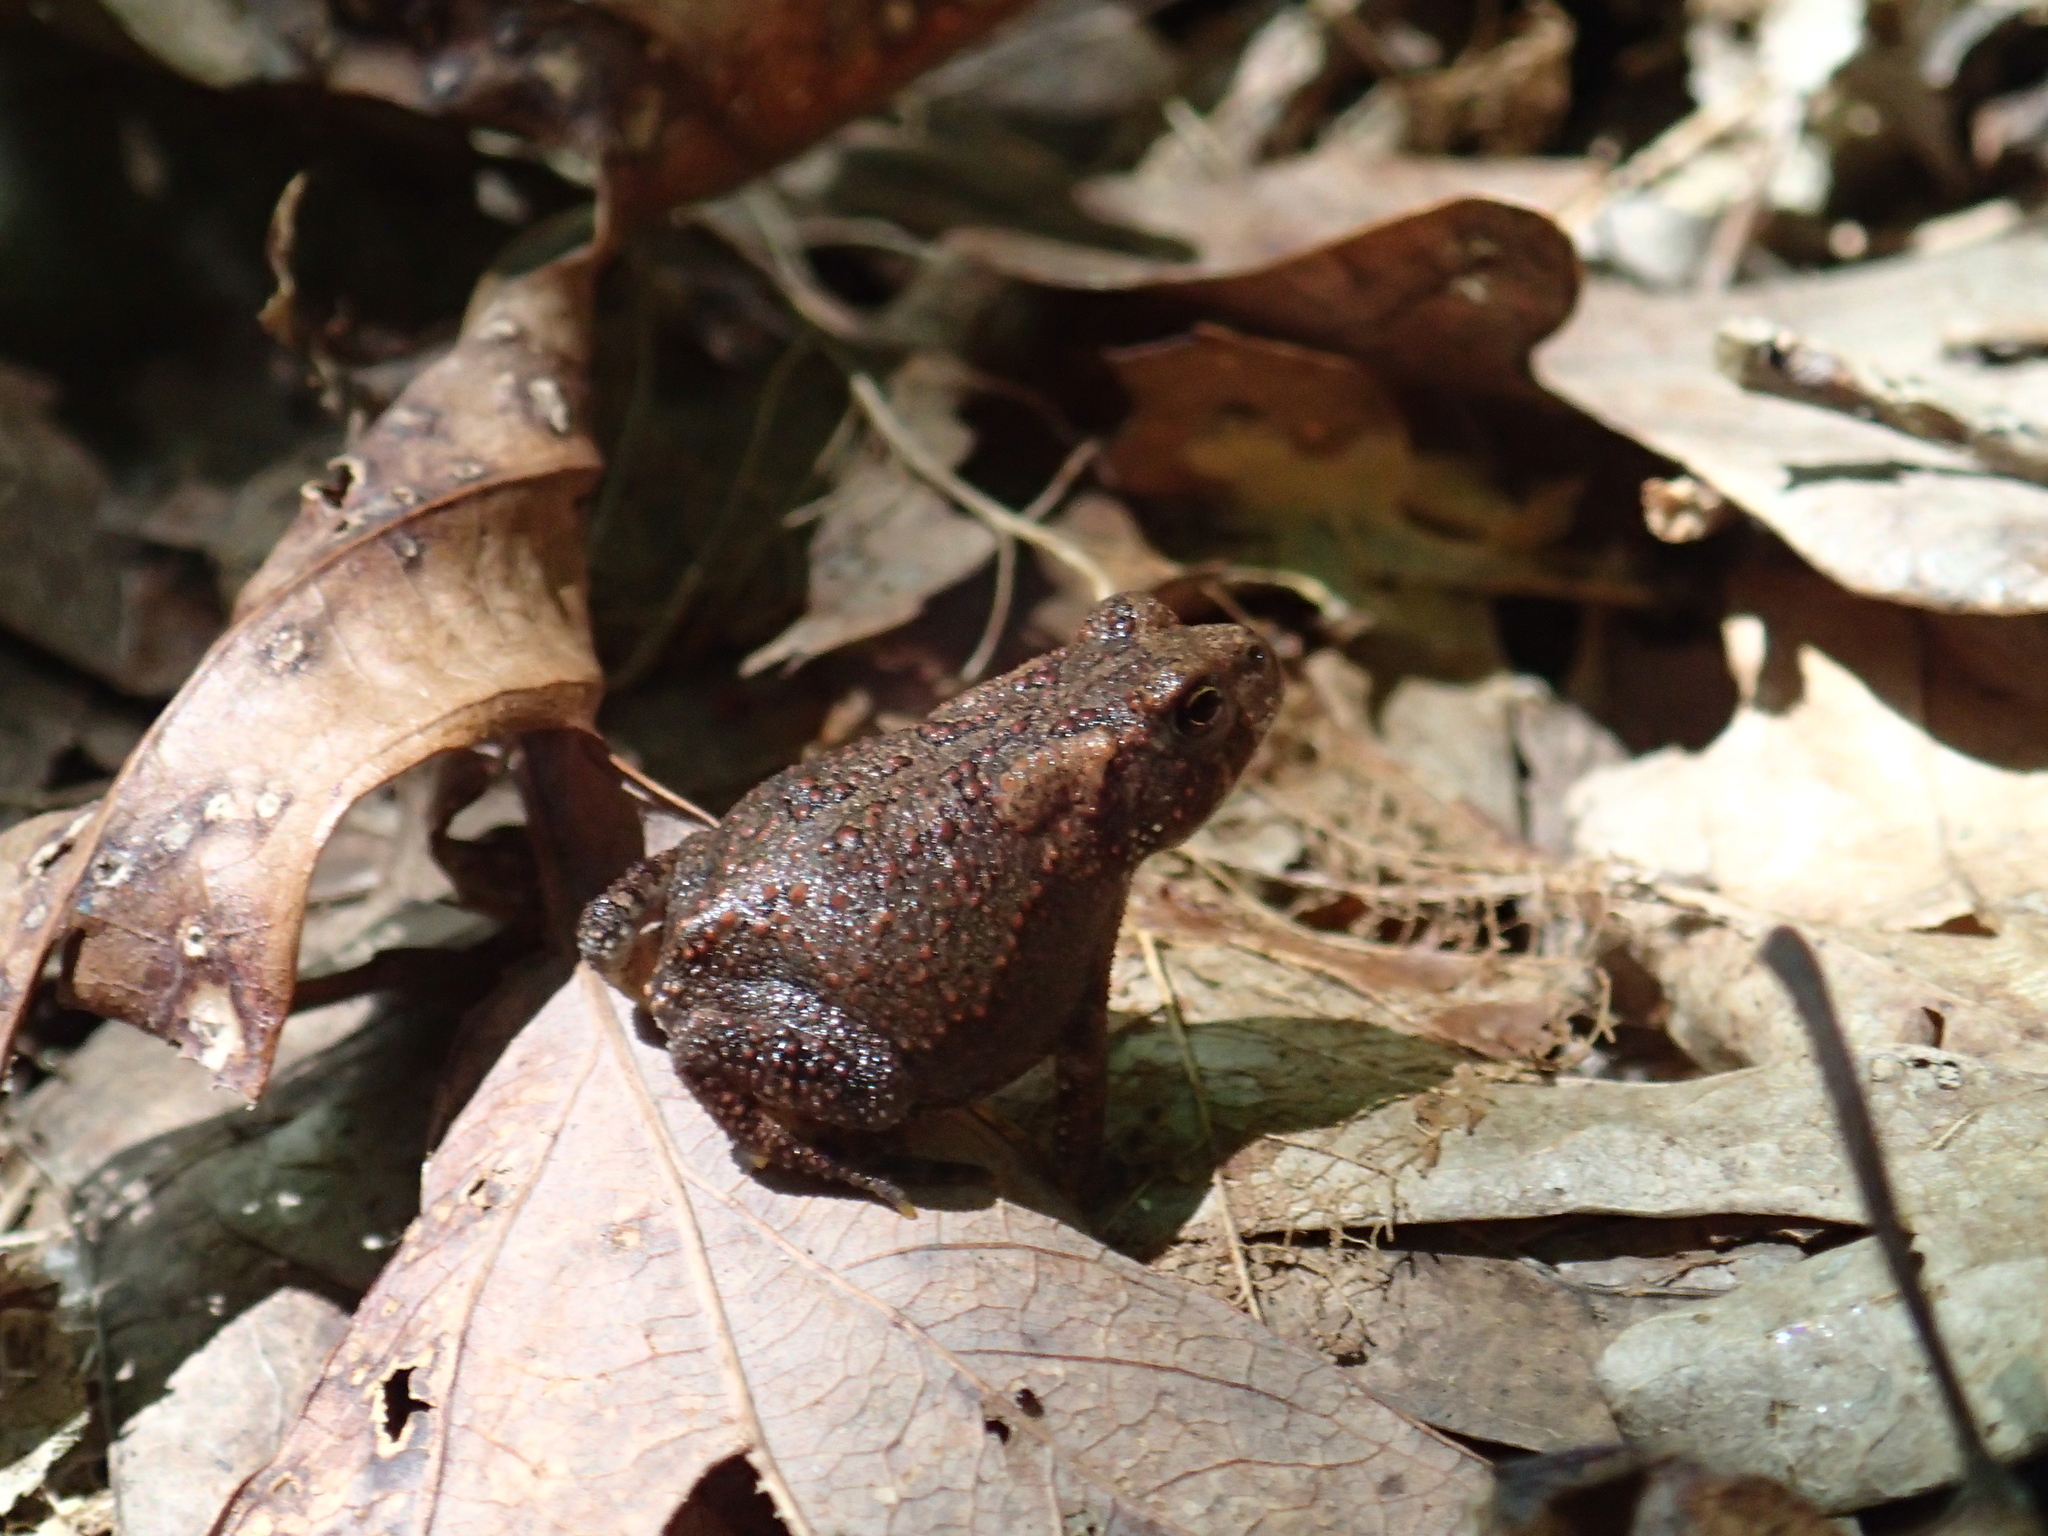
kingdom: Animalia
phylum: Chordata
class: Amphibia
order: Anura
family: Bufonidae
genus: Anaxyrus
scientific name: Anaxyrus americanus
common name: American toad
